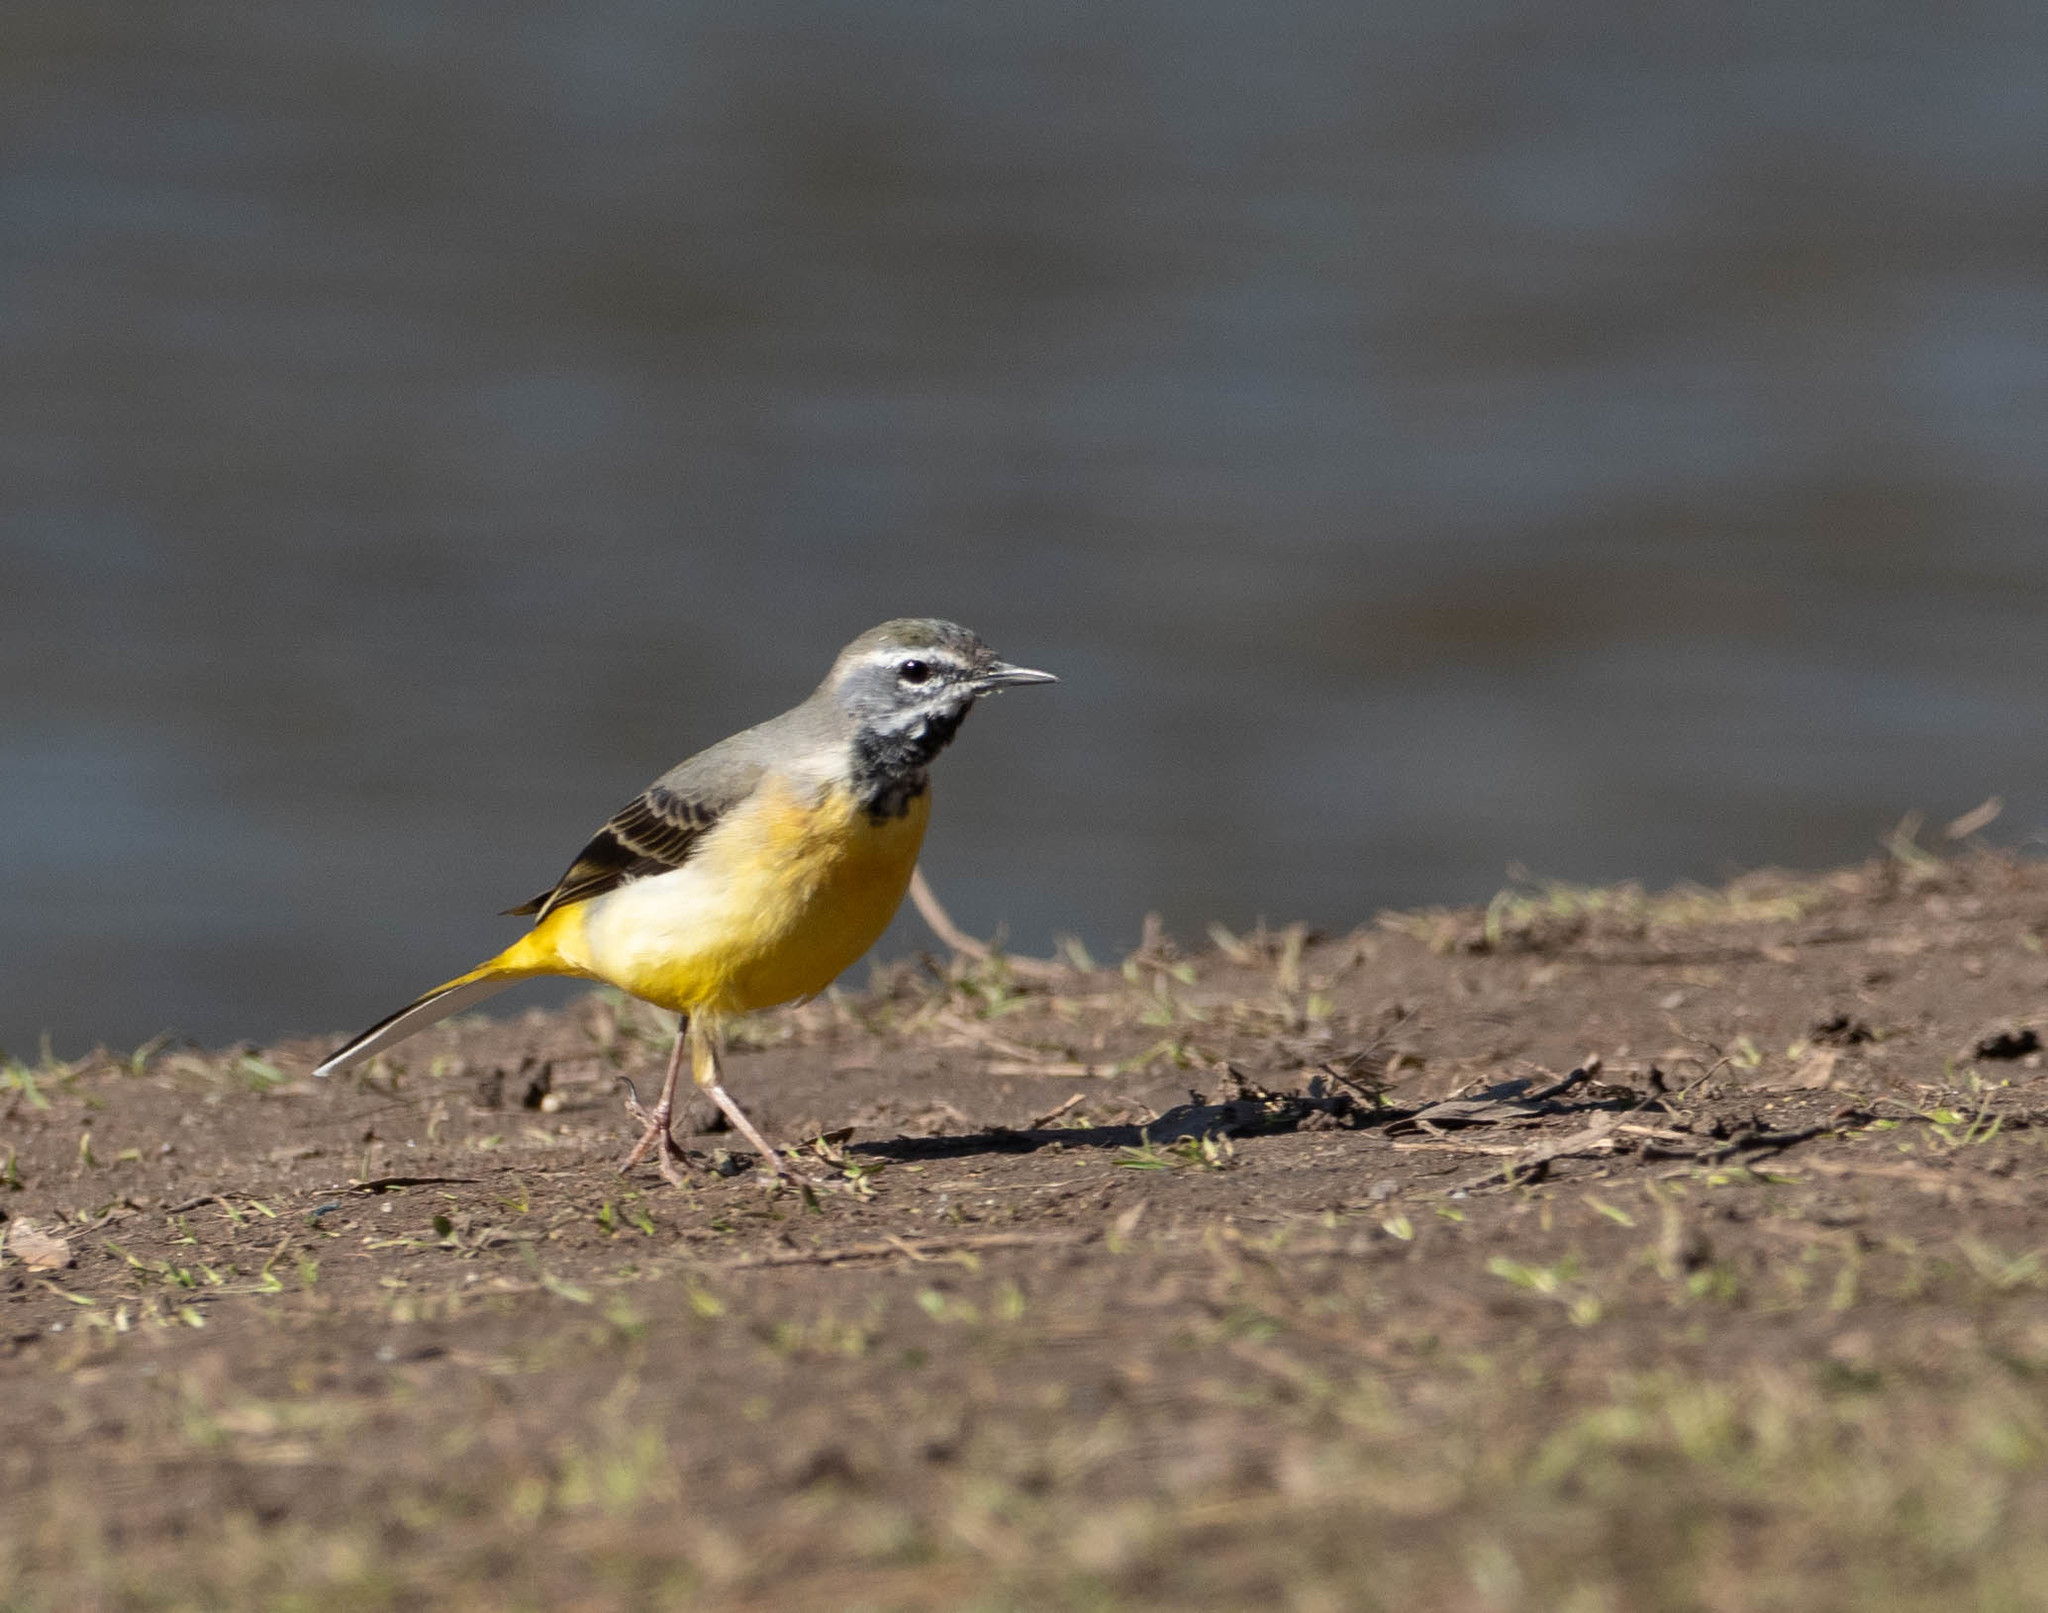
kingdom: Animalia
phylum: Chordata
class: Aves
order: Passeriformes
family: Motacillidae
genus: Motacilla
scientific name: Motacilla cinerea
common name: Grey wagtail
